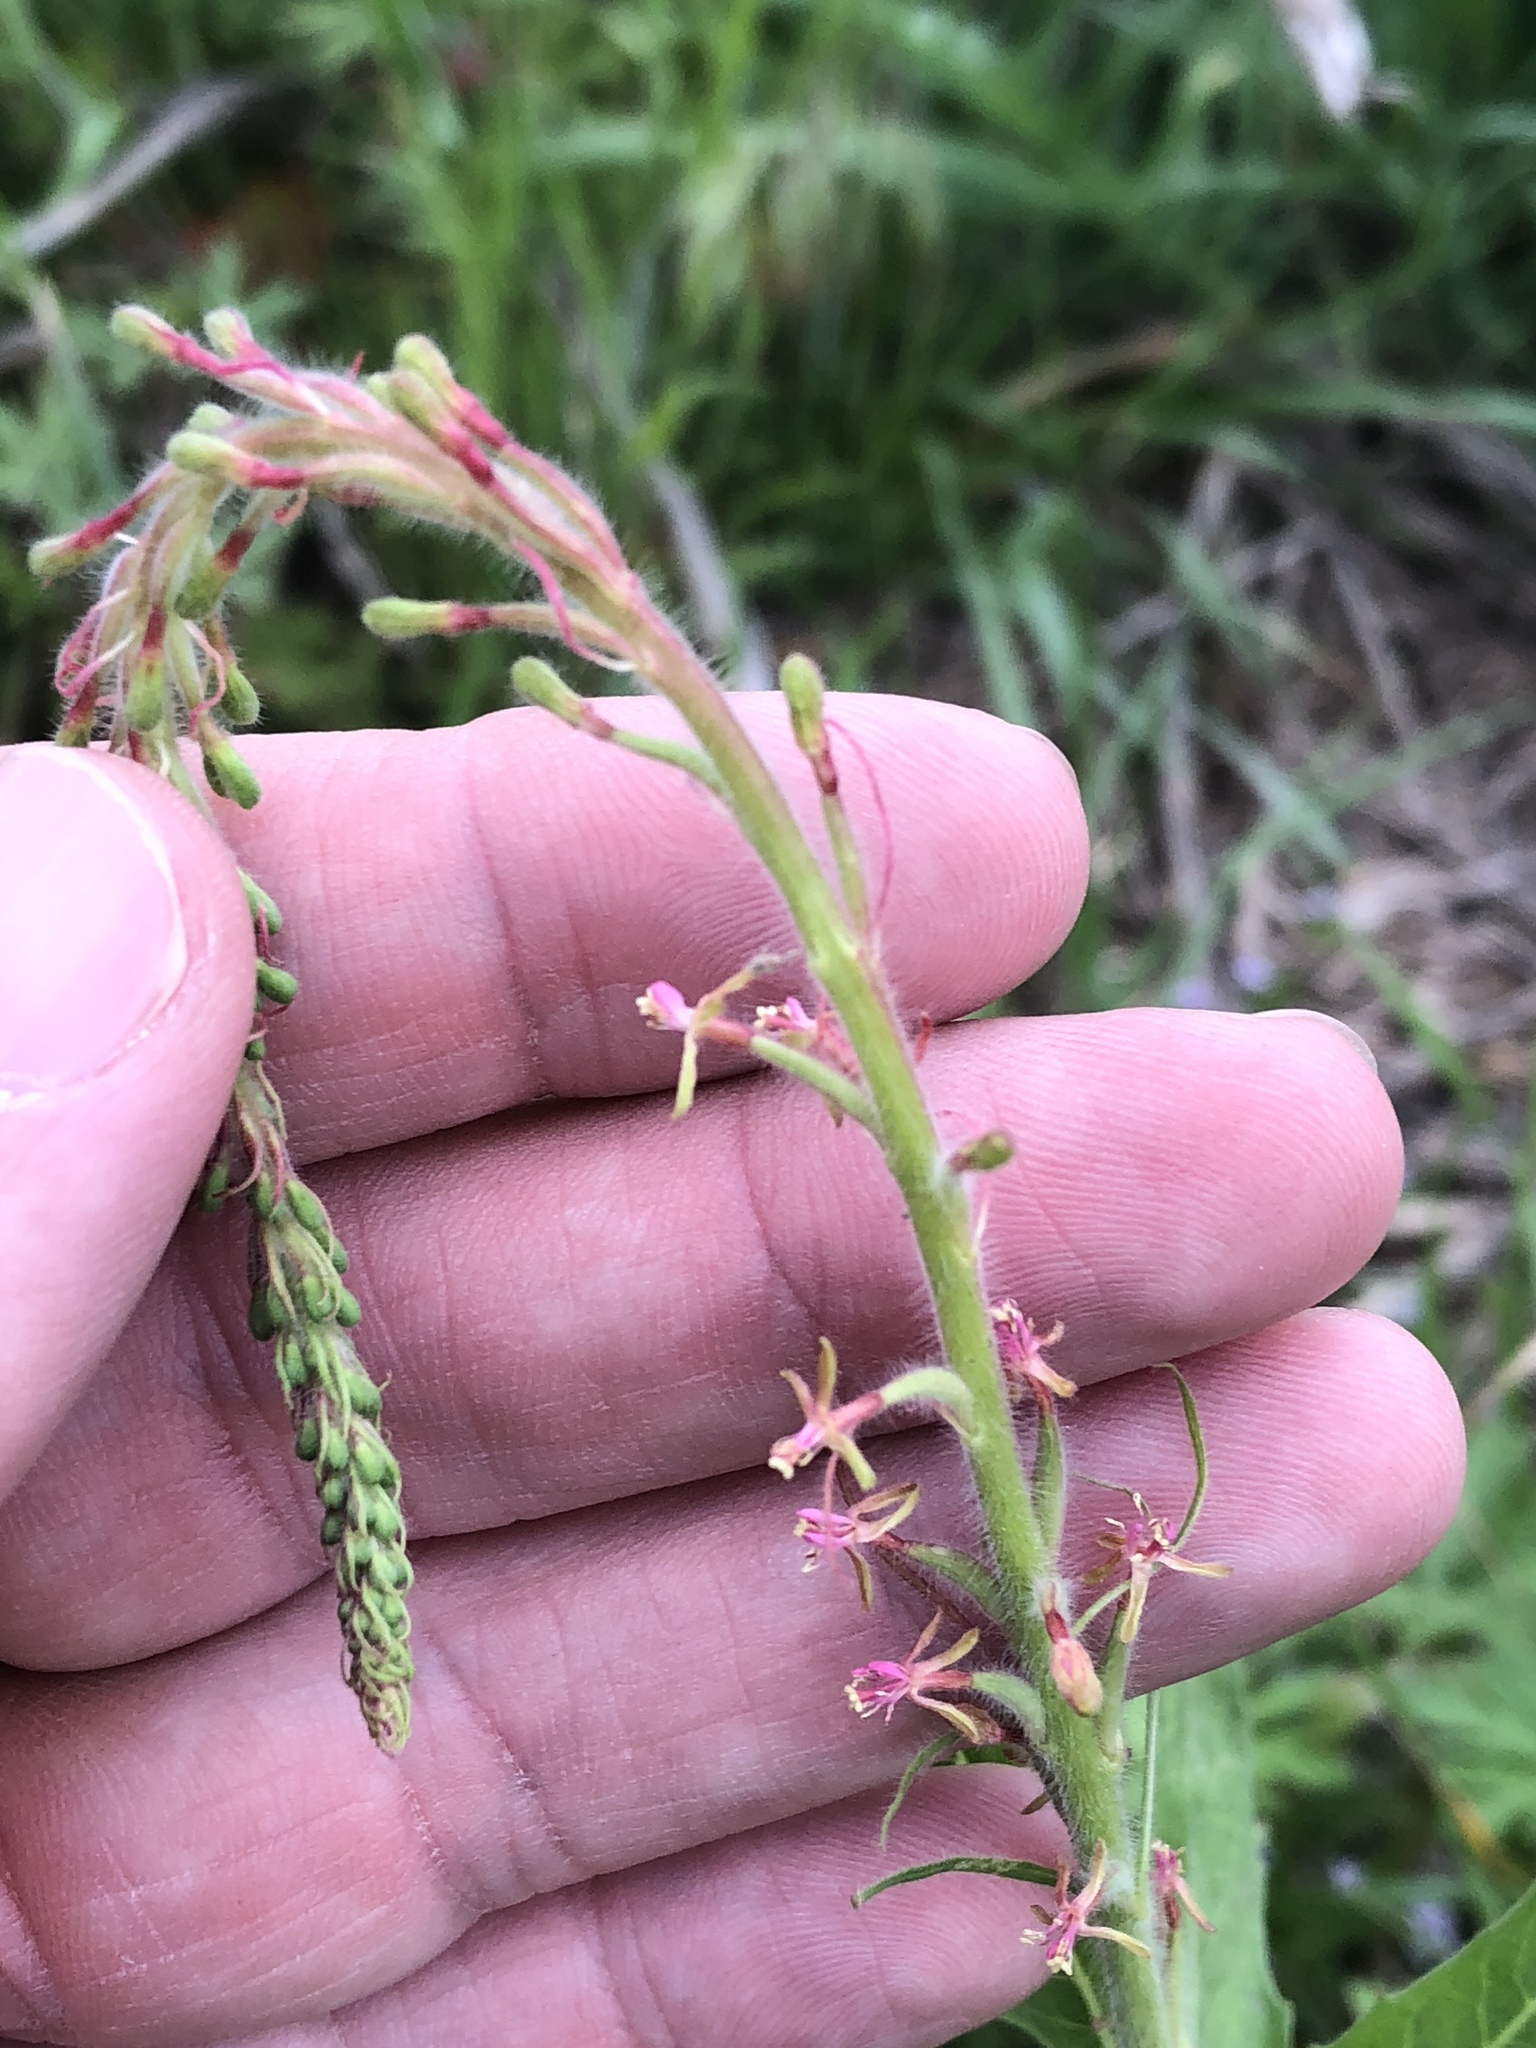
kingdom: Plantae
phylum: Tracheophyta
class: Magnoliopsida
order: Myrtales
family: Onagraceae
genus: Oenothera
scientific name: Oenothera curtiflora
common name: Velvetweed
